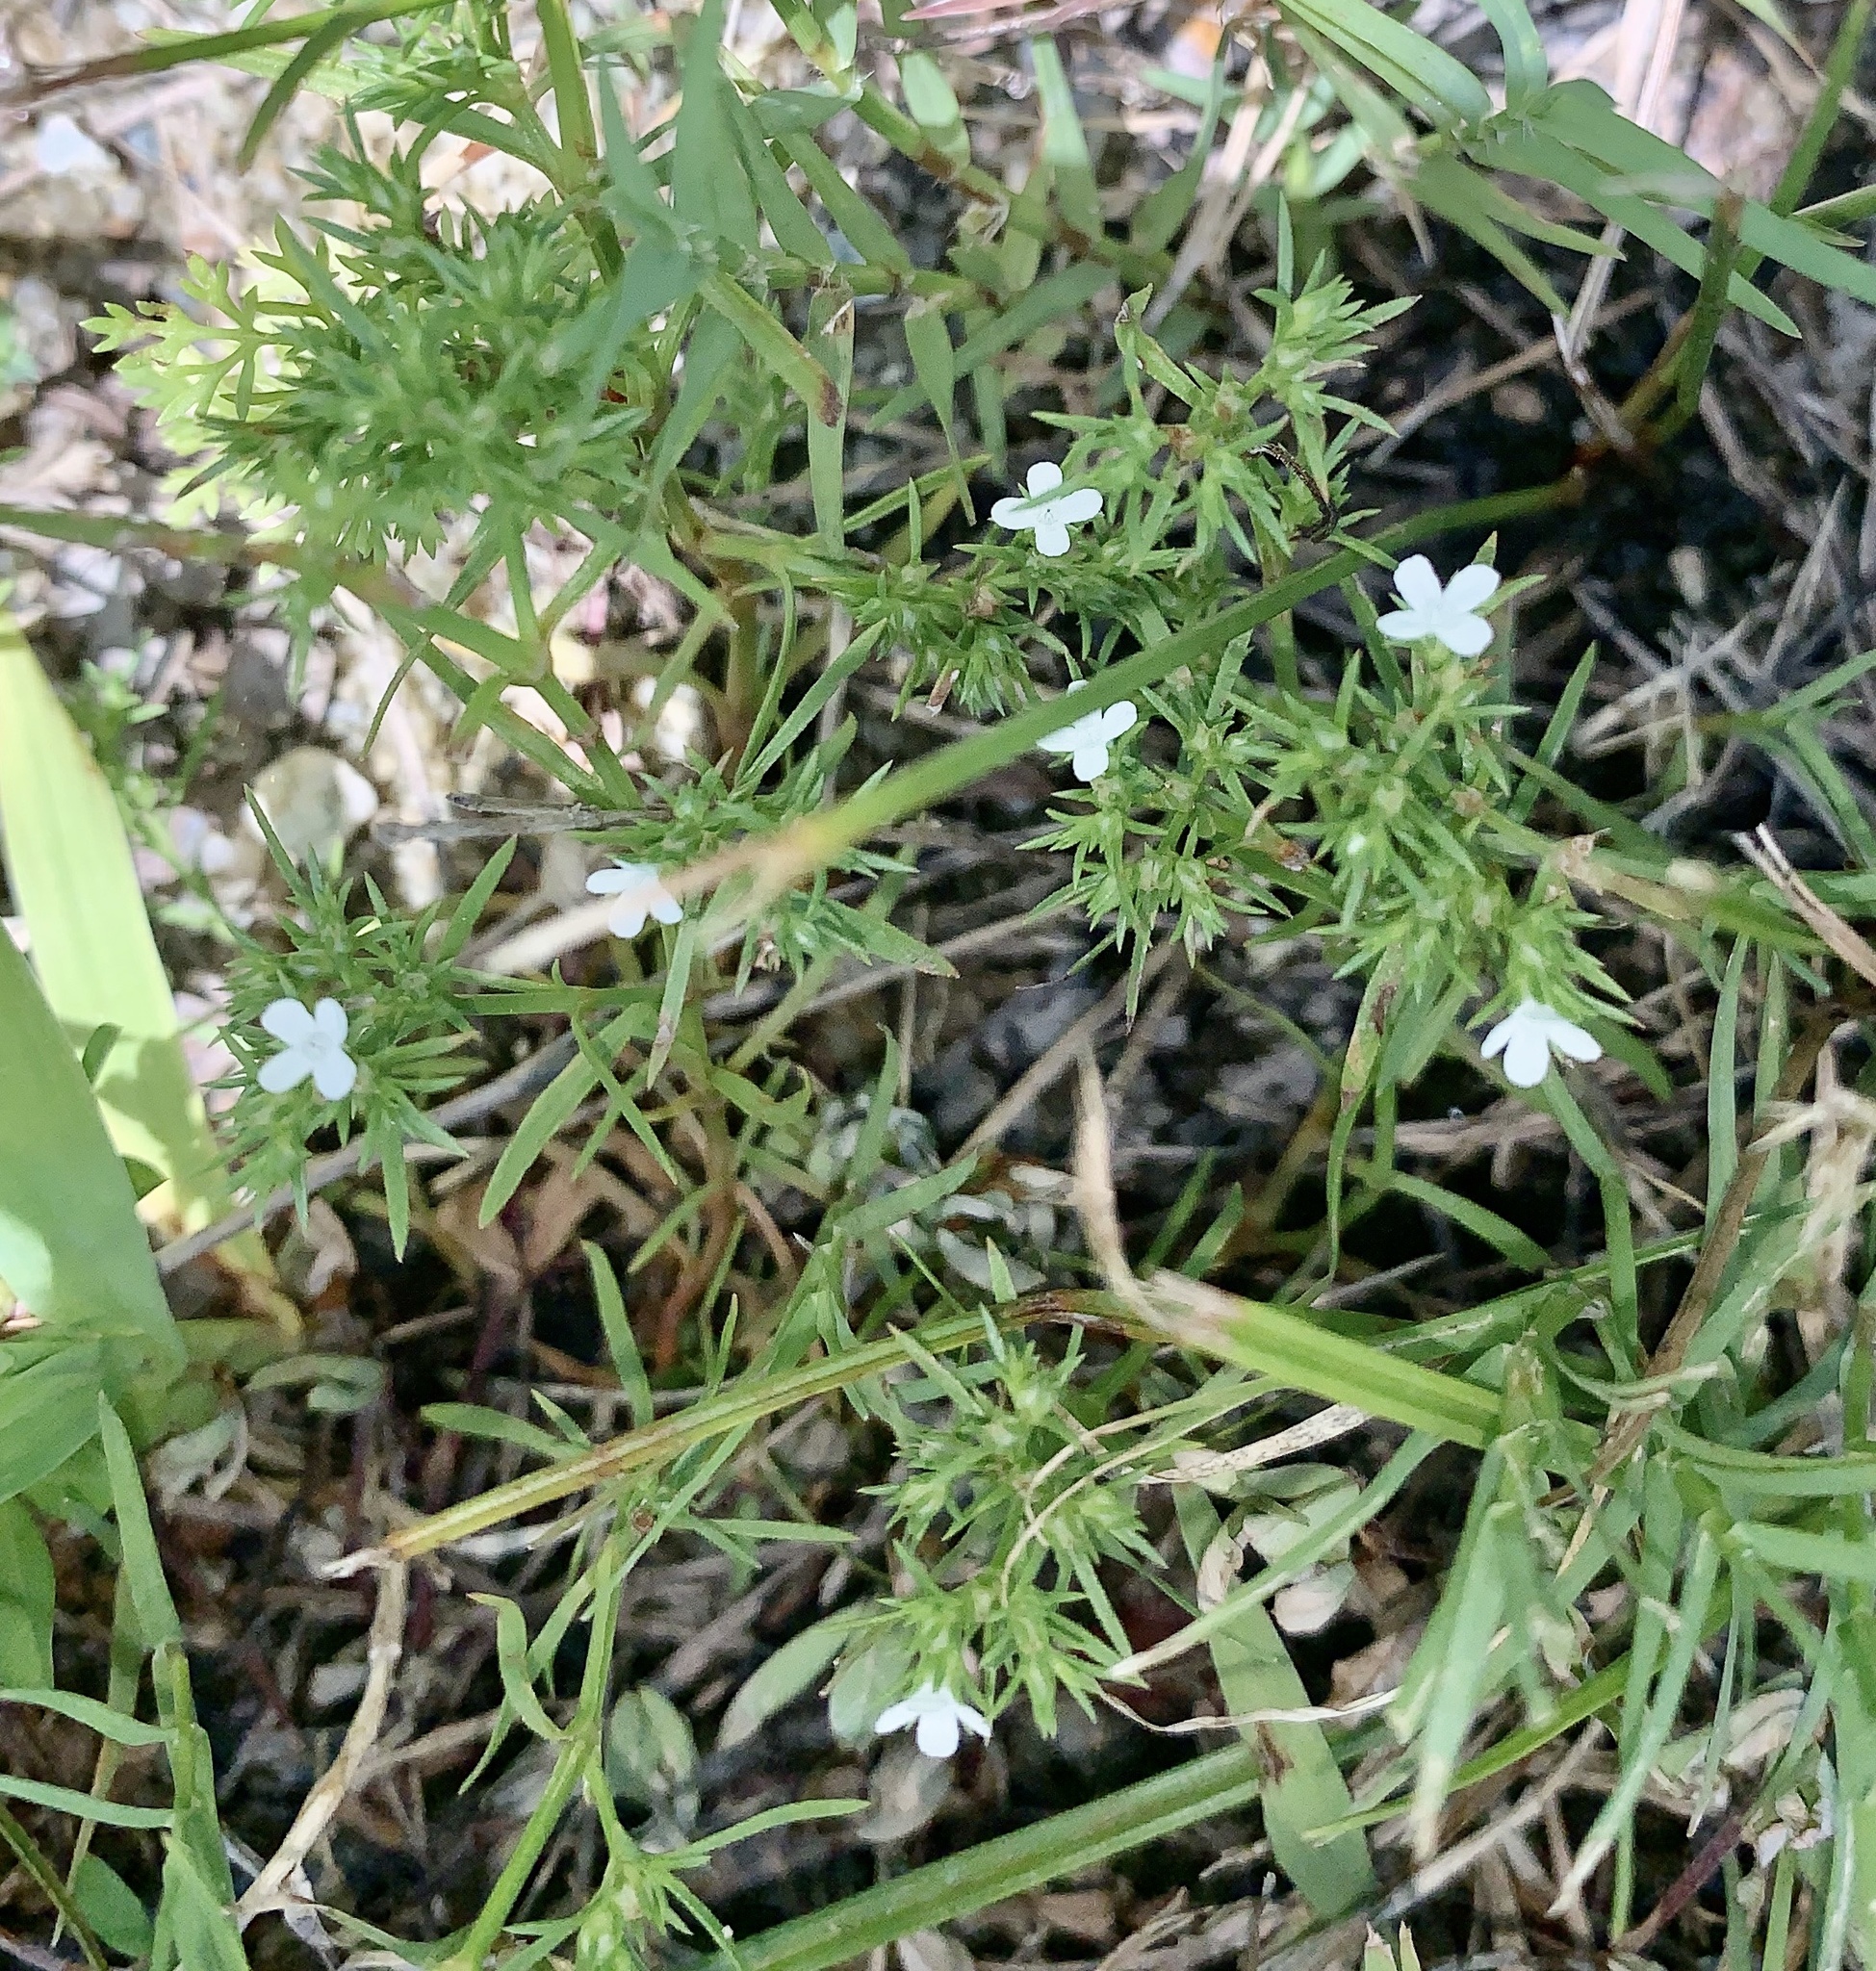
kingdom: Plantae
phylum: Tracheophyta
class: Magnoliopsida
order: Lamiales
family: Tetrachondraceae
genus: Polypremum
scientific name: Polypremum procumbens
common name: Juniper-leaf
